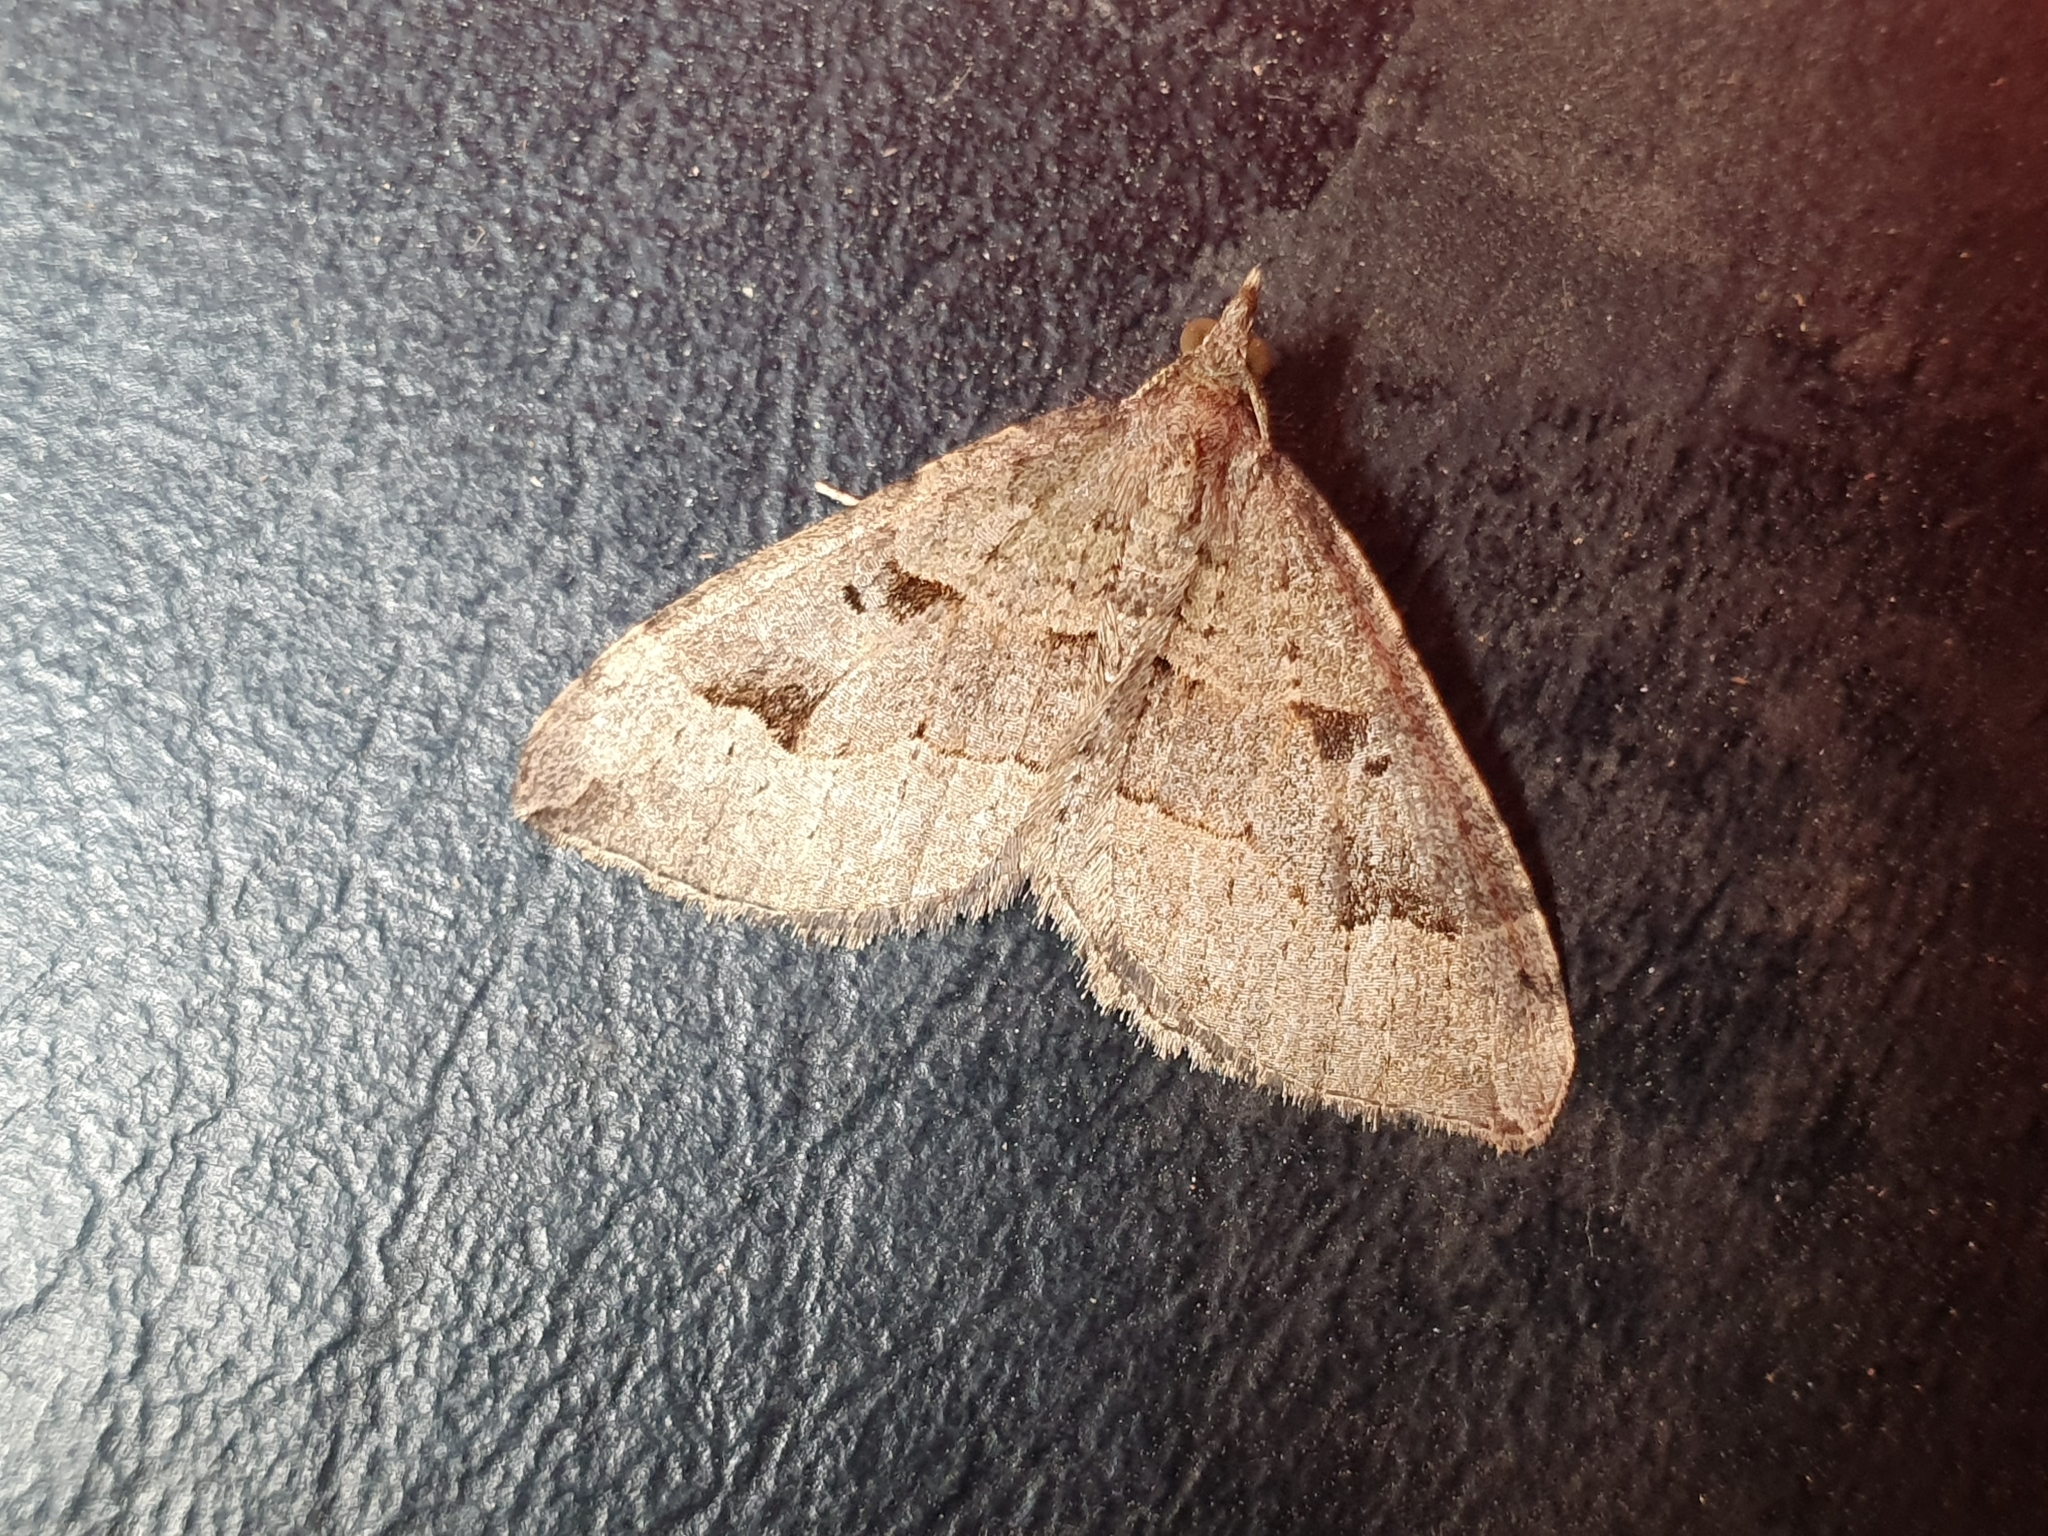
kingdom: Animalia
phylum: Arthropoda
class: Insecta
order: Lepidoptera
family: Geometridae
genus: Epyaxa
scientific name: Epyaxa rosearia
